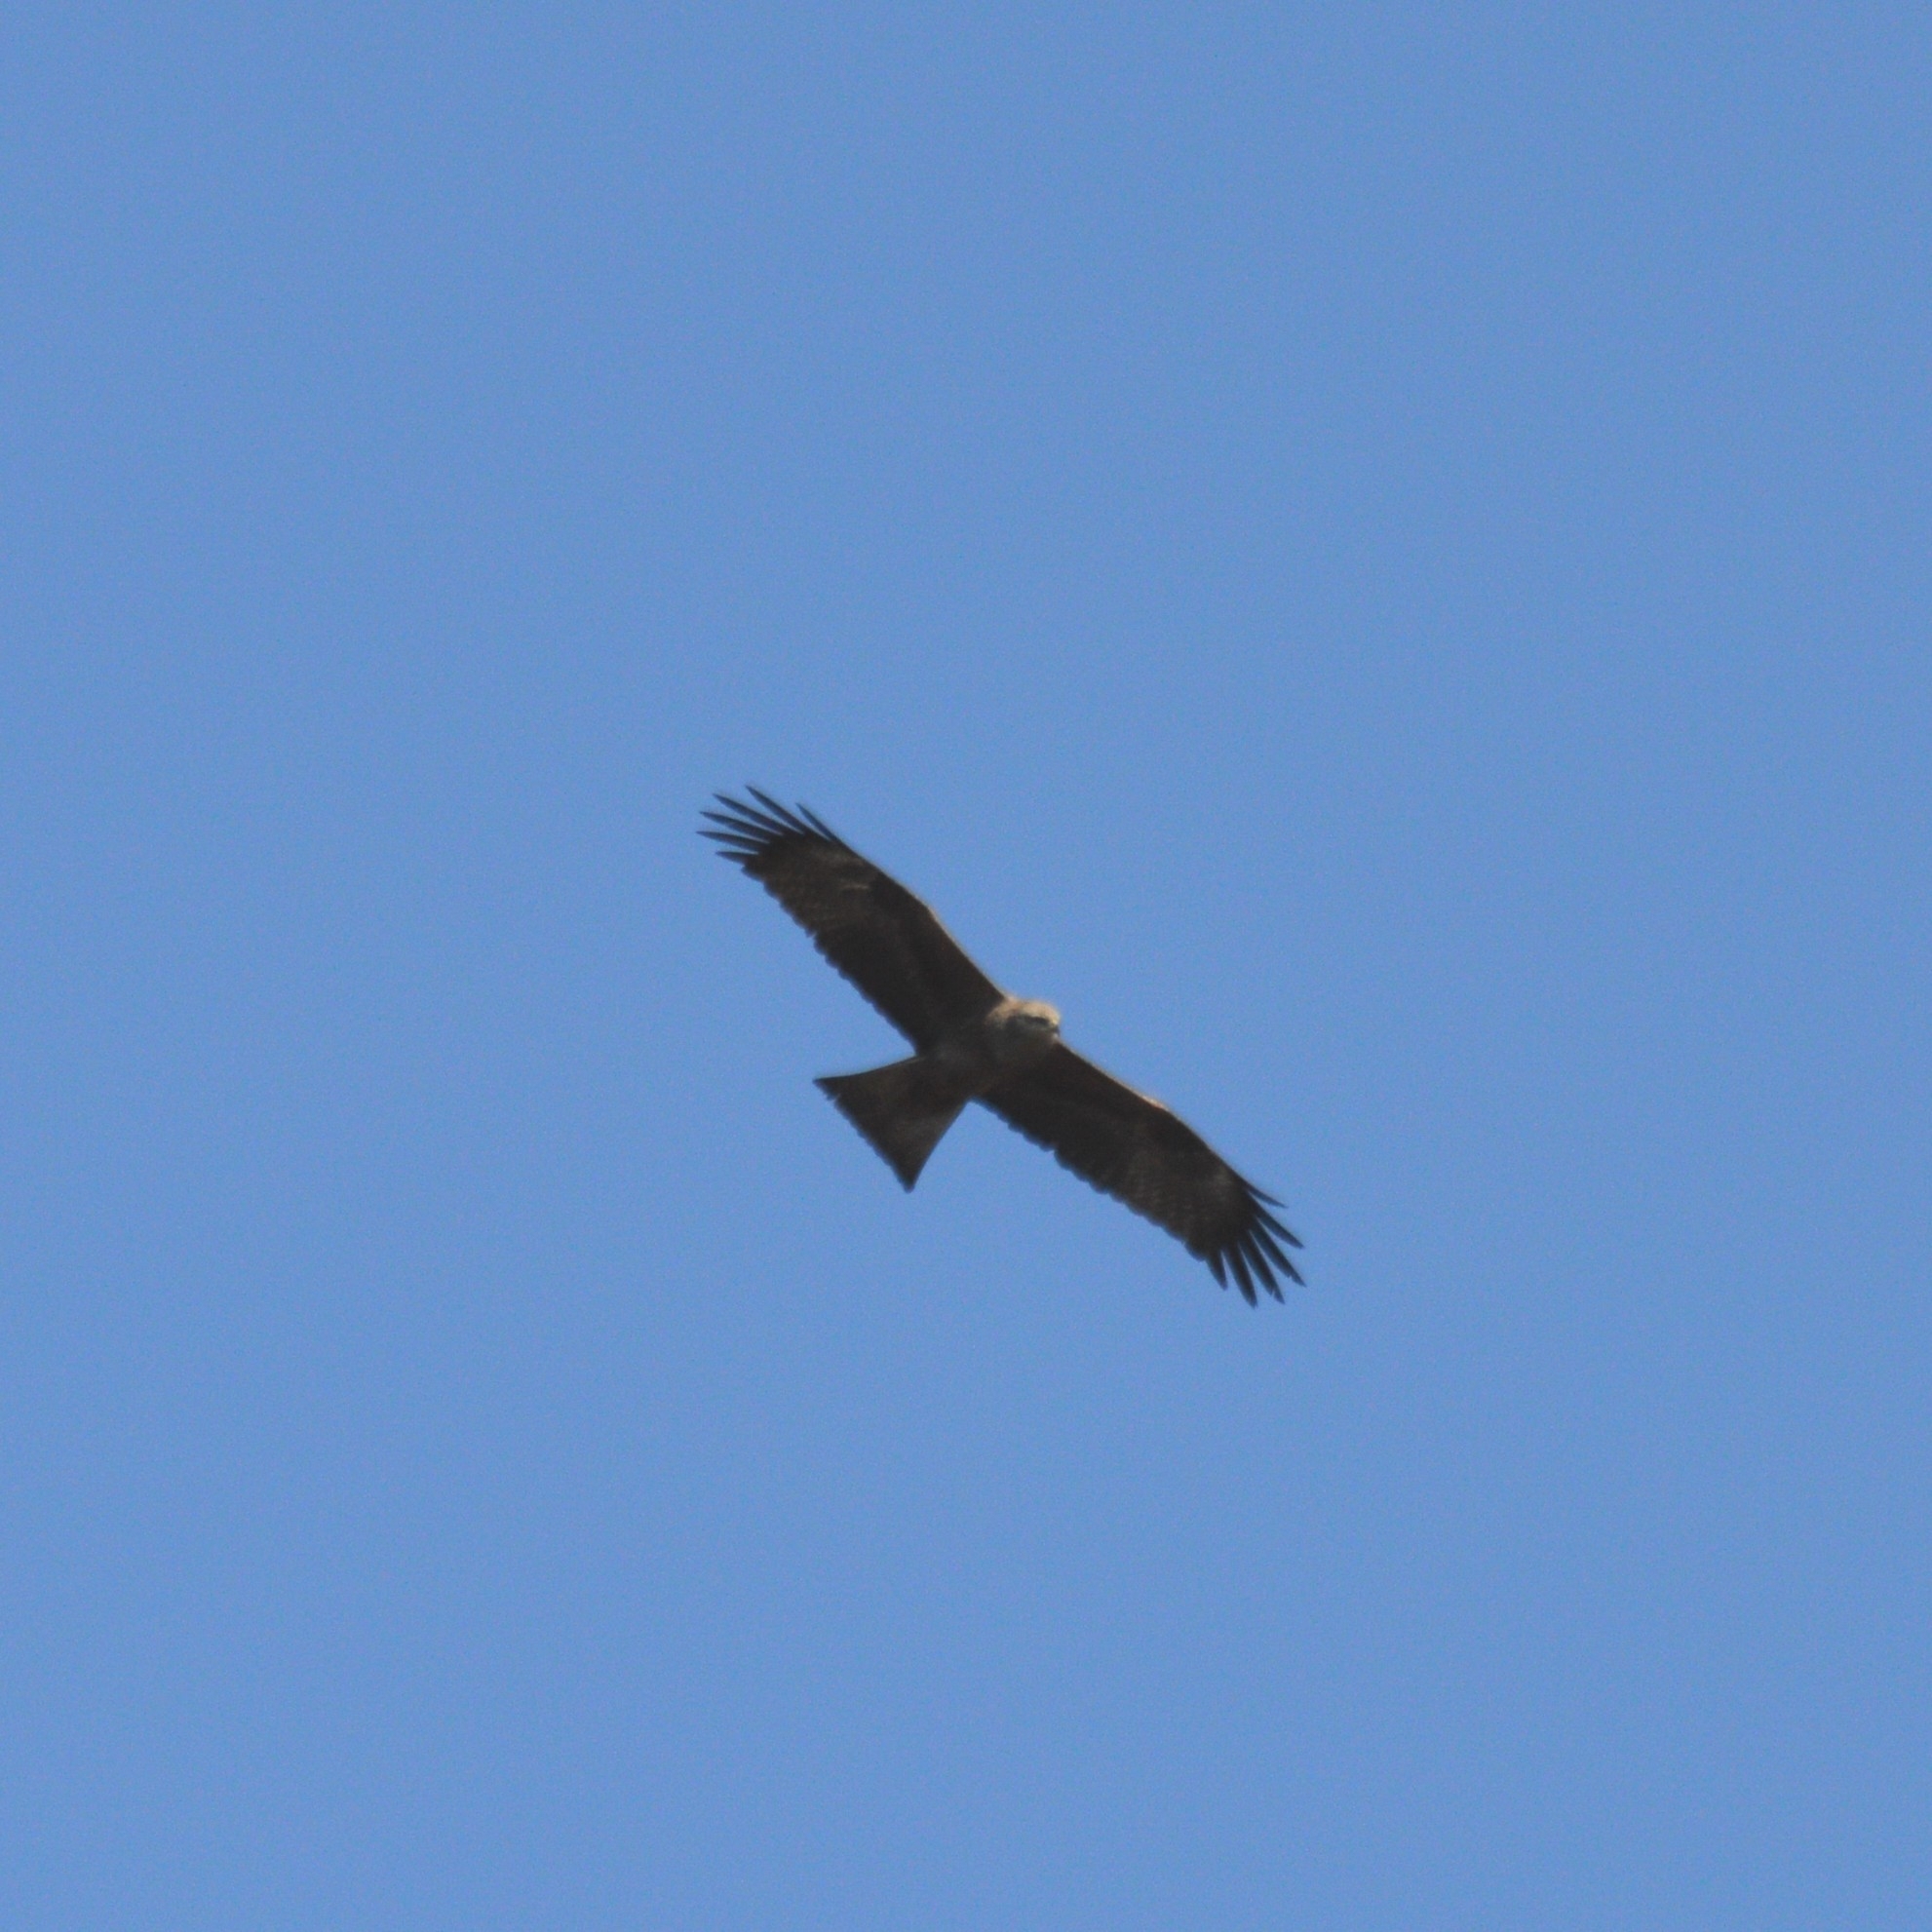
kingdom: Animalia
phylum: Chordata
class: Aves
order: Accipitriformes
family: Accipitridae
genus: Milvus
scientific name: Milvus migrans
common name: Black kite
